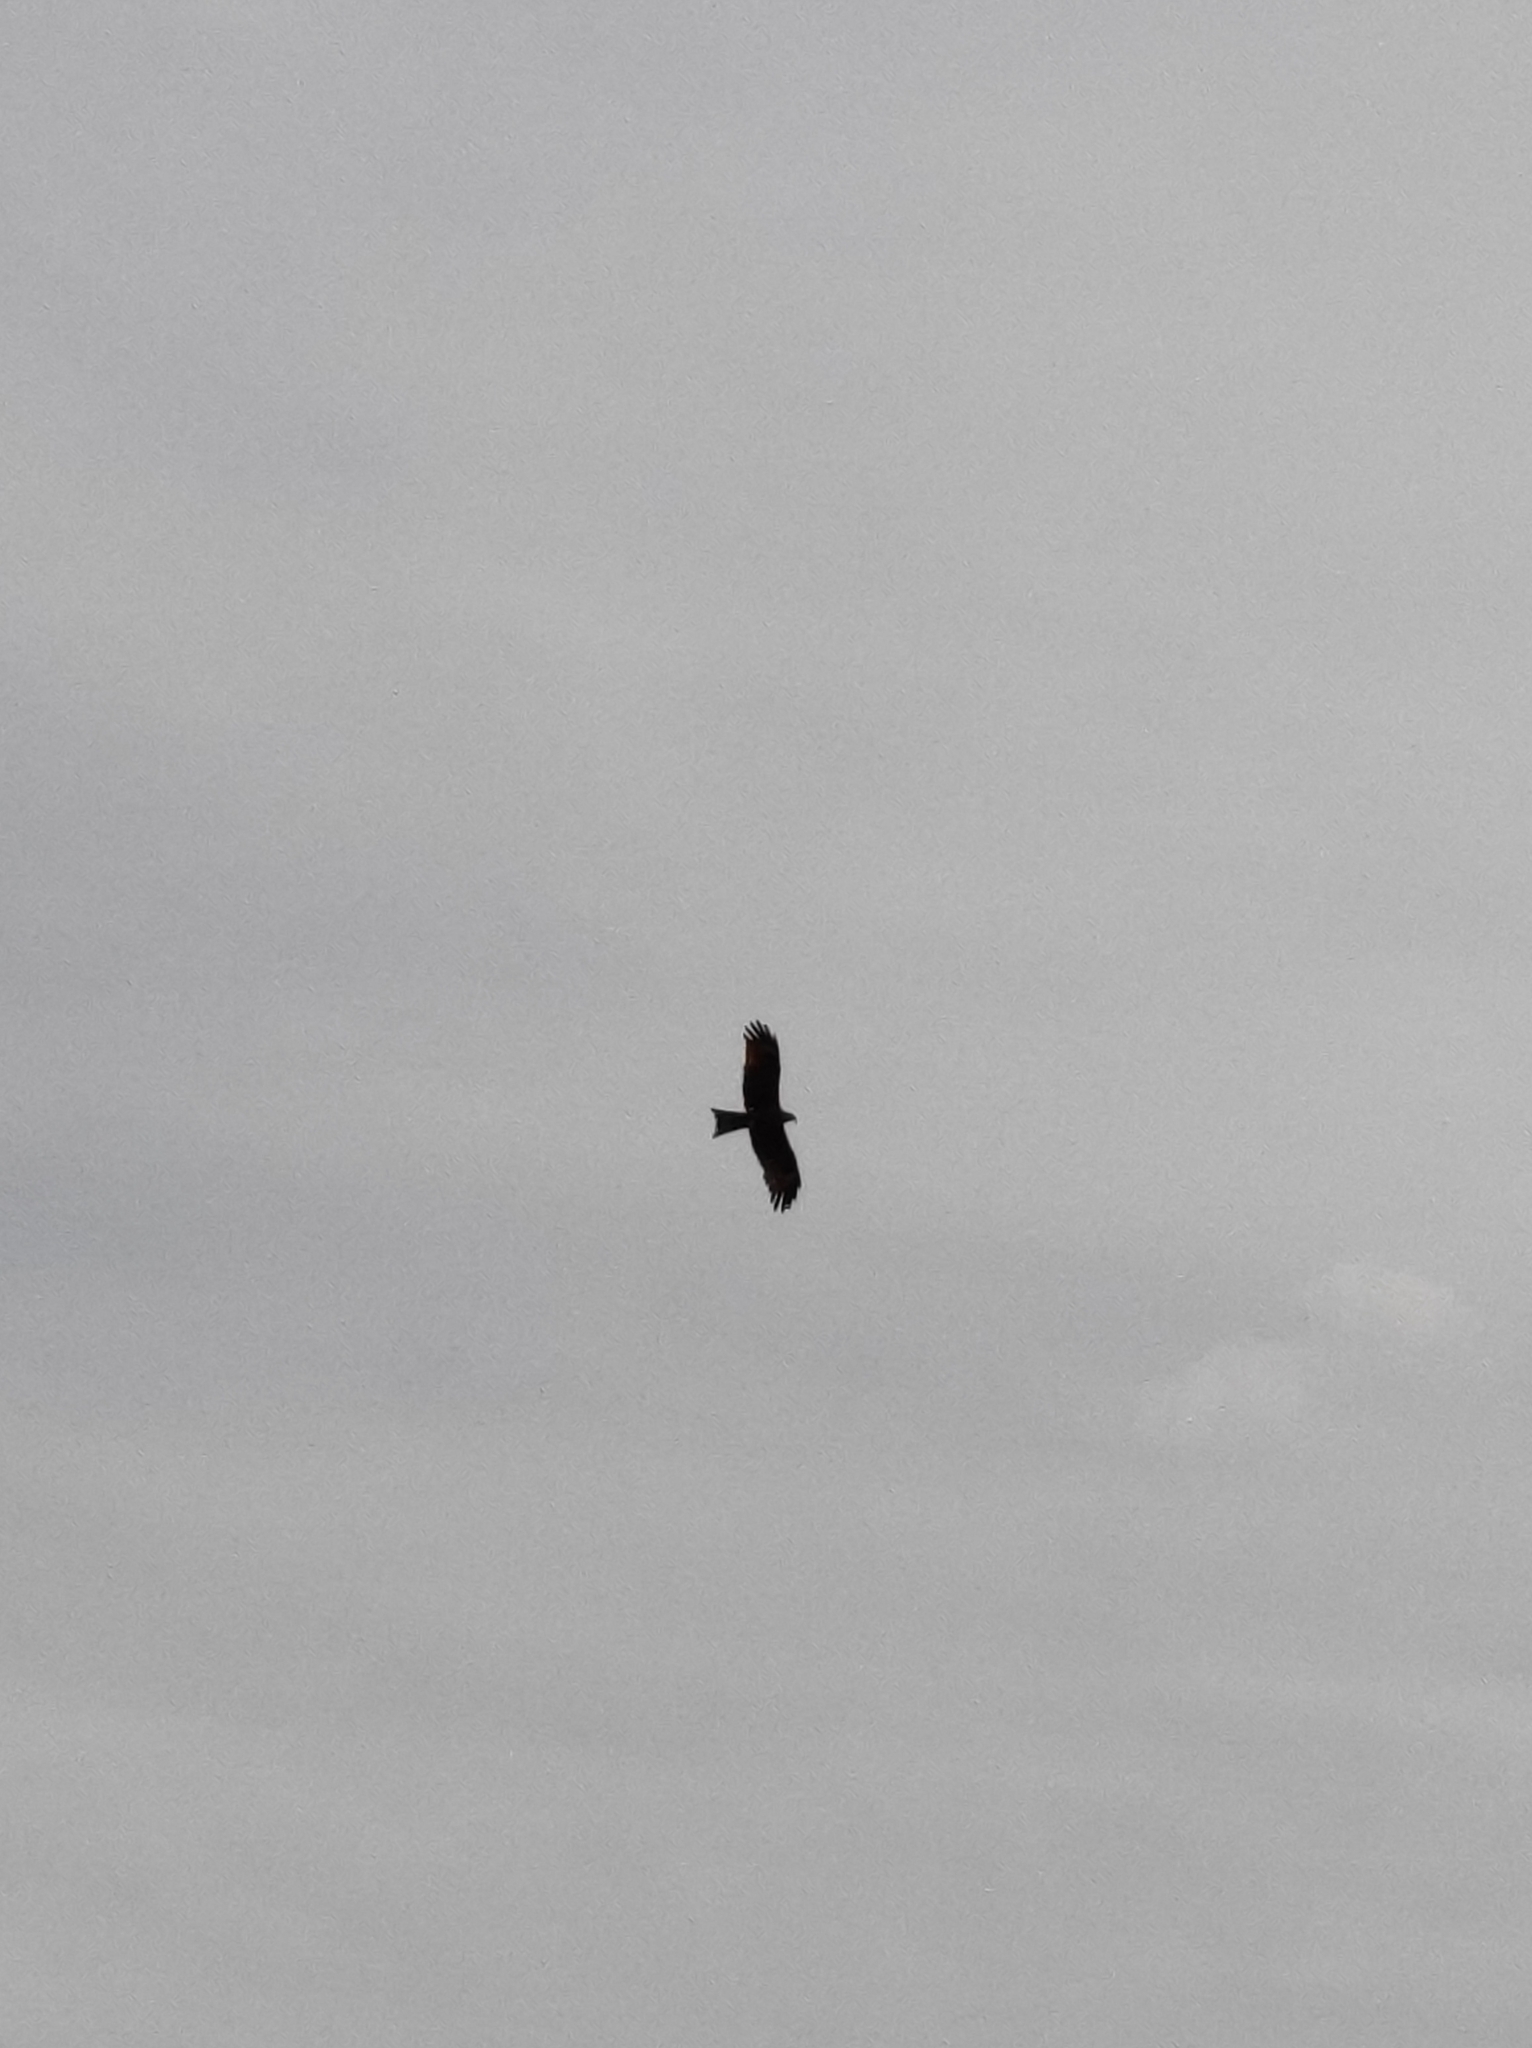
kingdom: Animalia
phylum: Chordata
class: Aves
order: Accipitriformes
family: Accipitridae
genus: Milvus
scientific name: Milvus migrans
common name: Black kite
